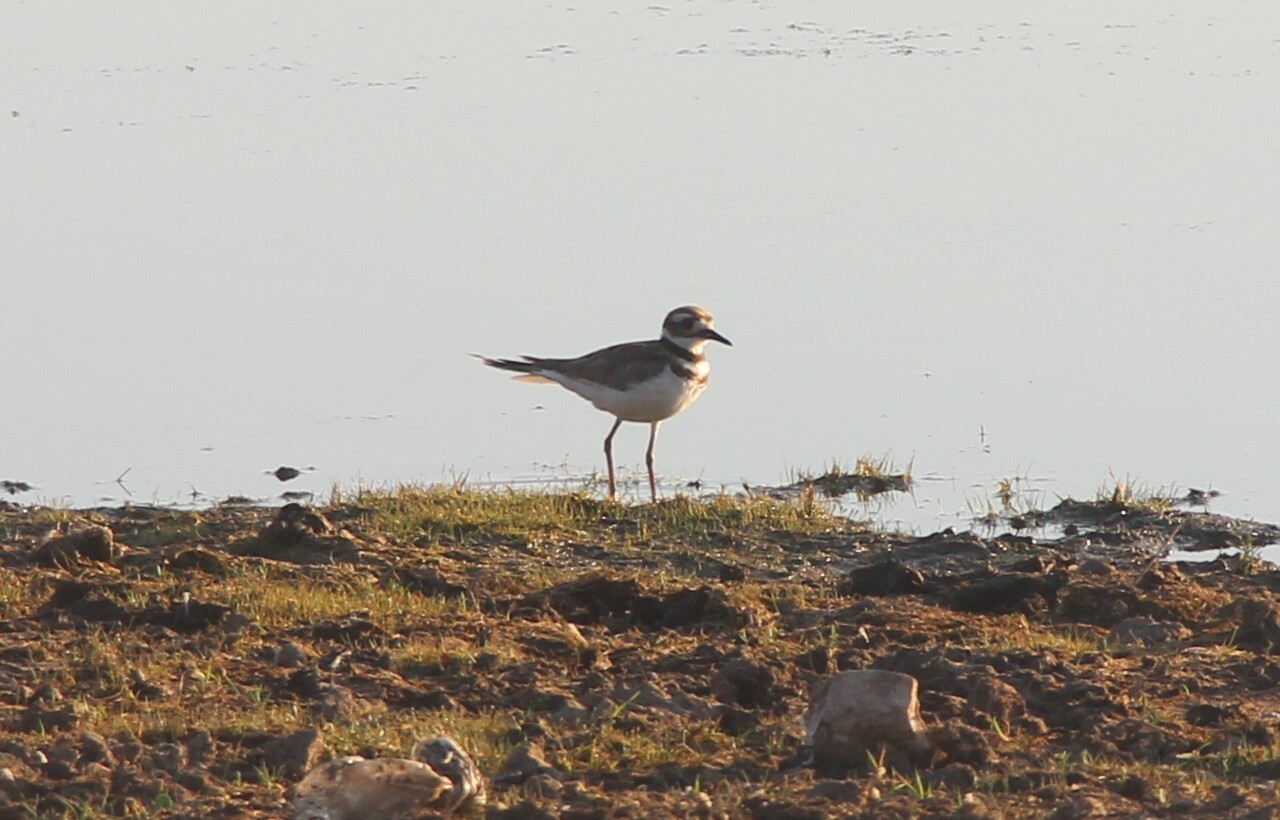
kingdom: Animalia
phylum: Chordata
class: Aves
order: Charadriiformes
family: Charadriidae
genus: Charadrius
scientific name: Charadrius vociferus
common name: Killdeer
